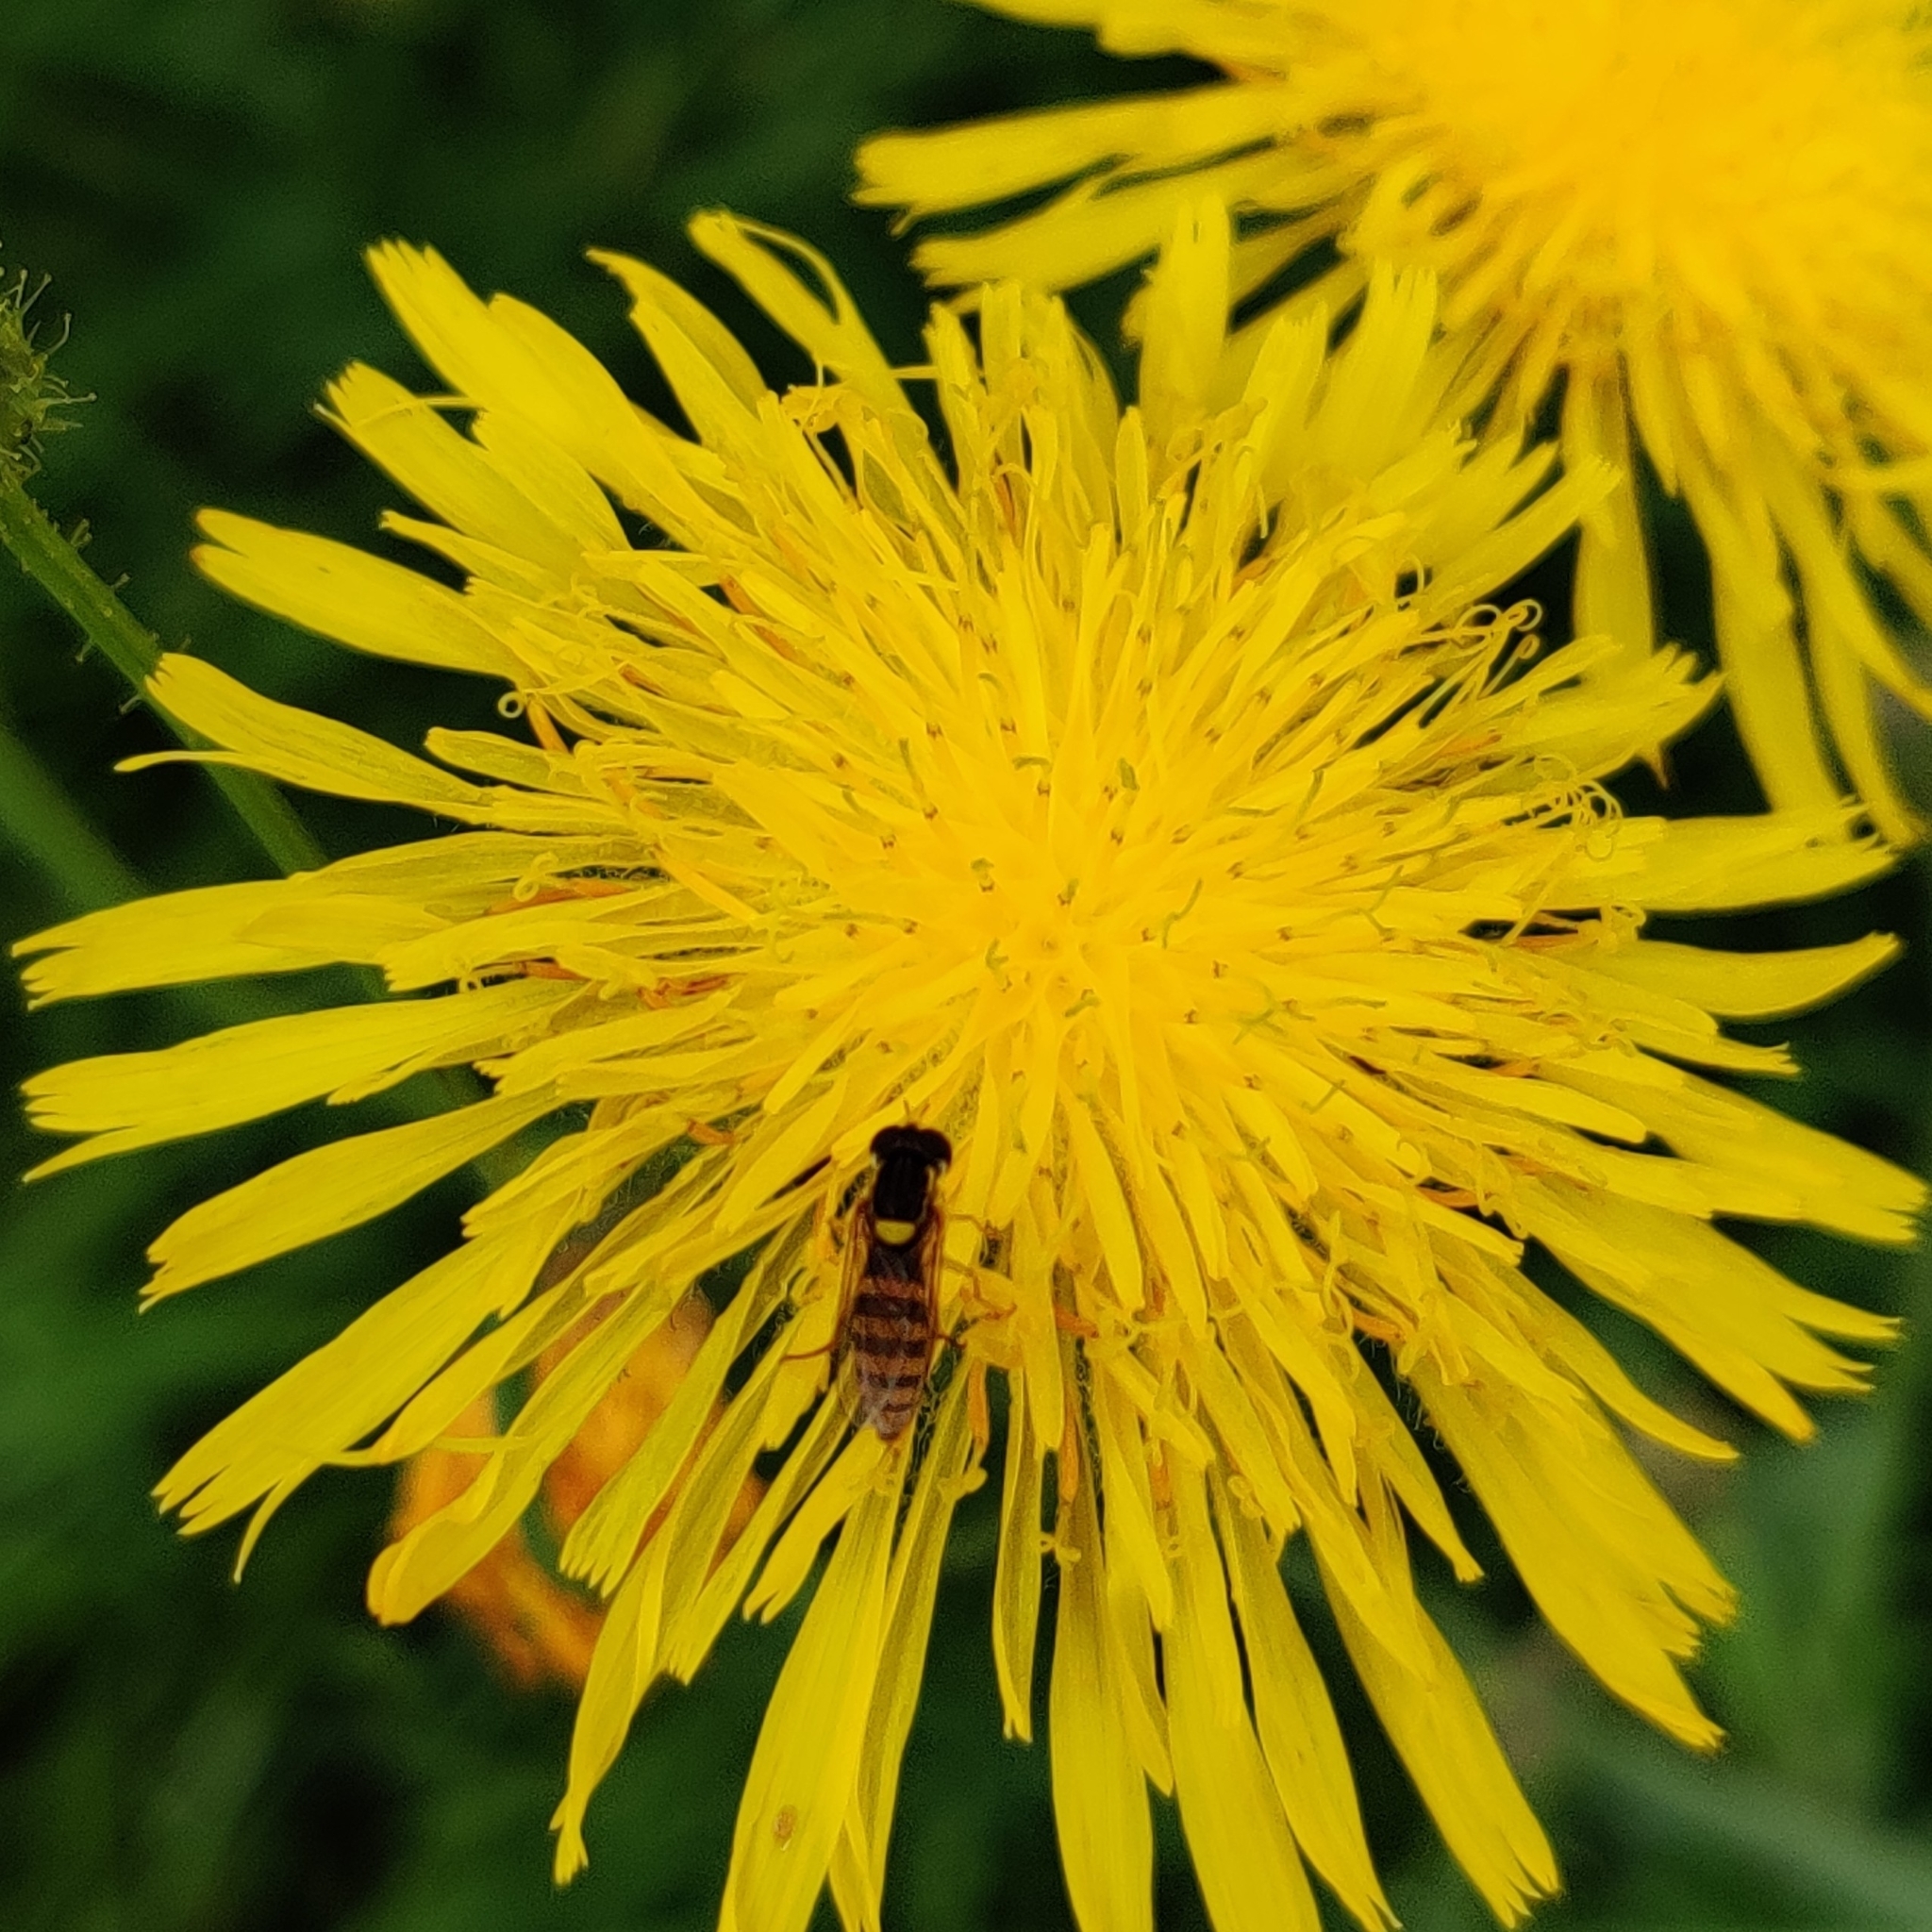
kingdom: Animalia
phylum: Arthropoda
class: Insecta
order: Diptera
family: Syrphidae
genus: Sphaerophoria
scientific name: Sphaerophoria
